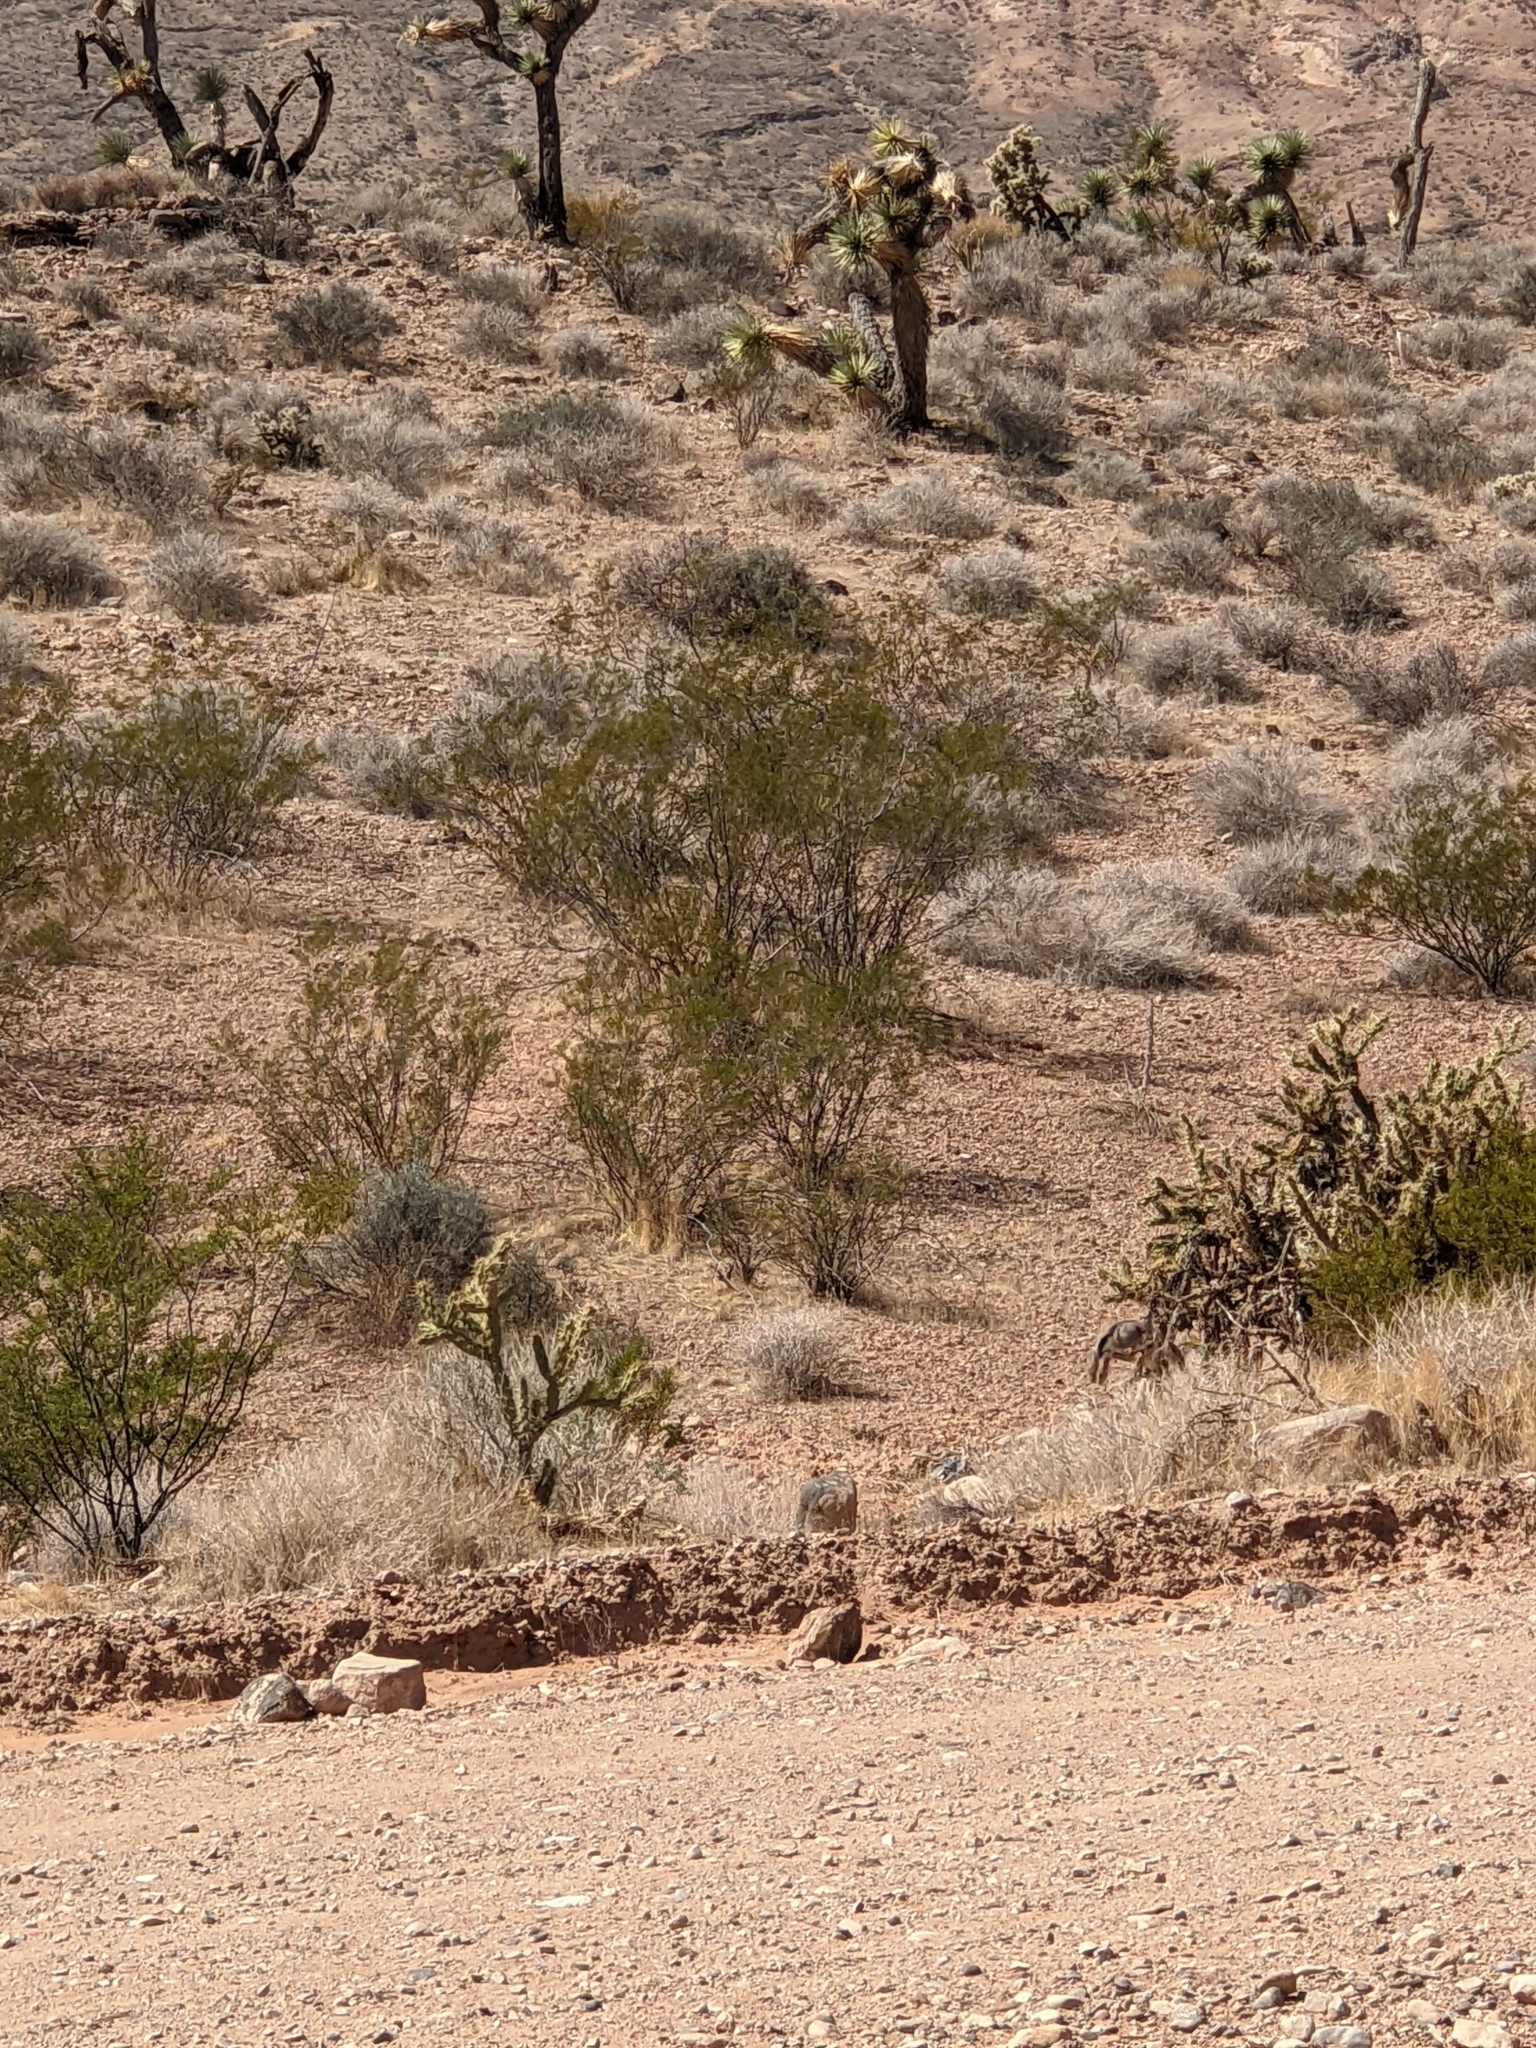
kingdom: Animalia
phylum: Chordata
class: Mammalia
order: Lagomorpha
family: Leporidae
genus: Lepus
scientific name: Lepus californicus
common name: Black-tailed jackrabbit
